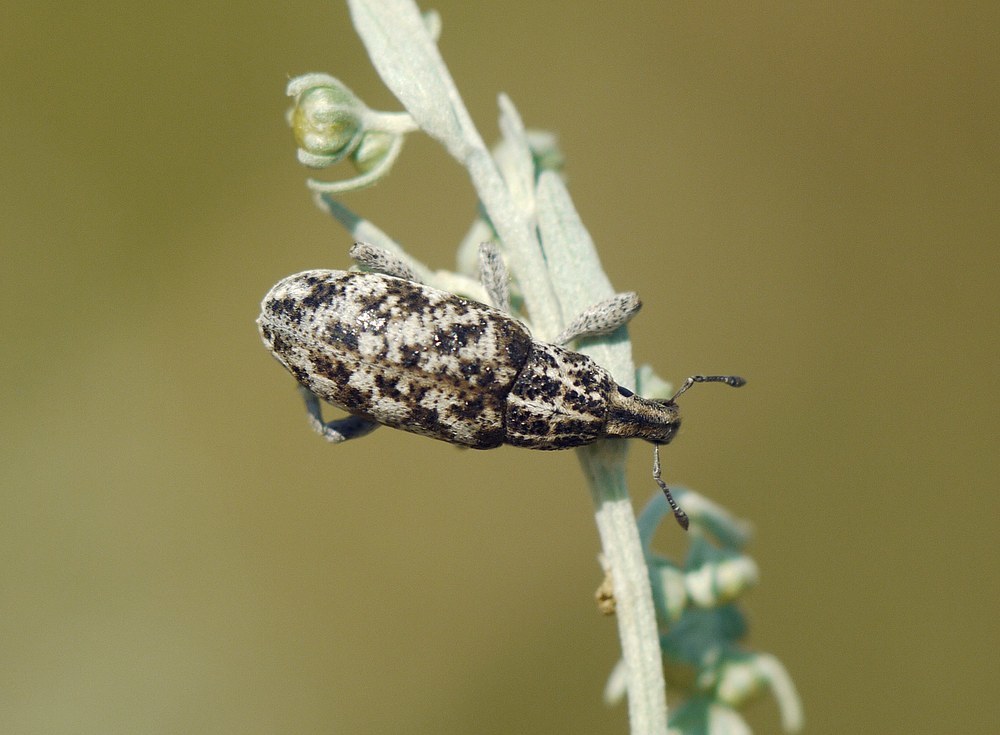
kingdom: Animalia
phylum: Arthropoda
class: Insecta
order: Coleoptera
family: Curculionidae
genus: Cyphocleonus
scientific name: Cyphocleonus dealbatus
